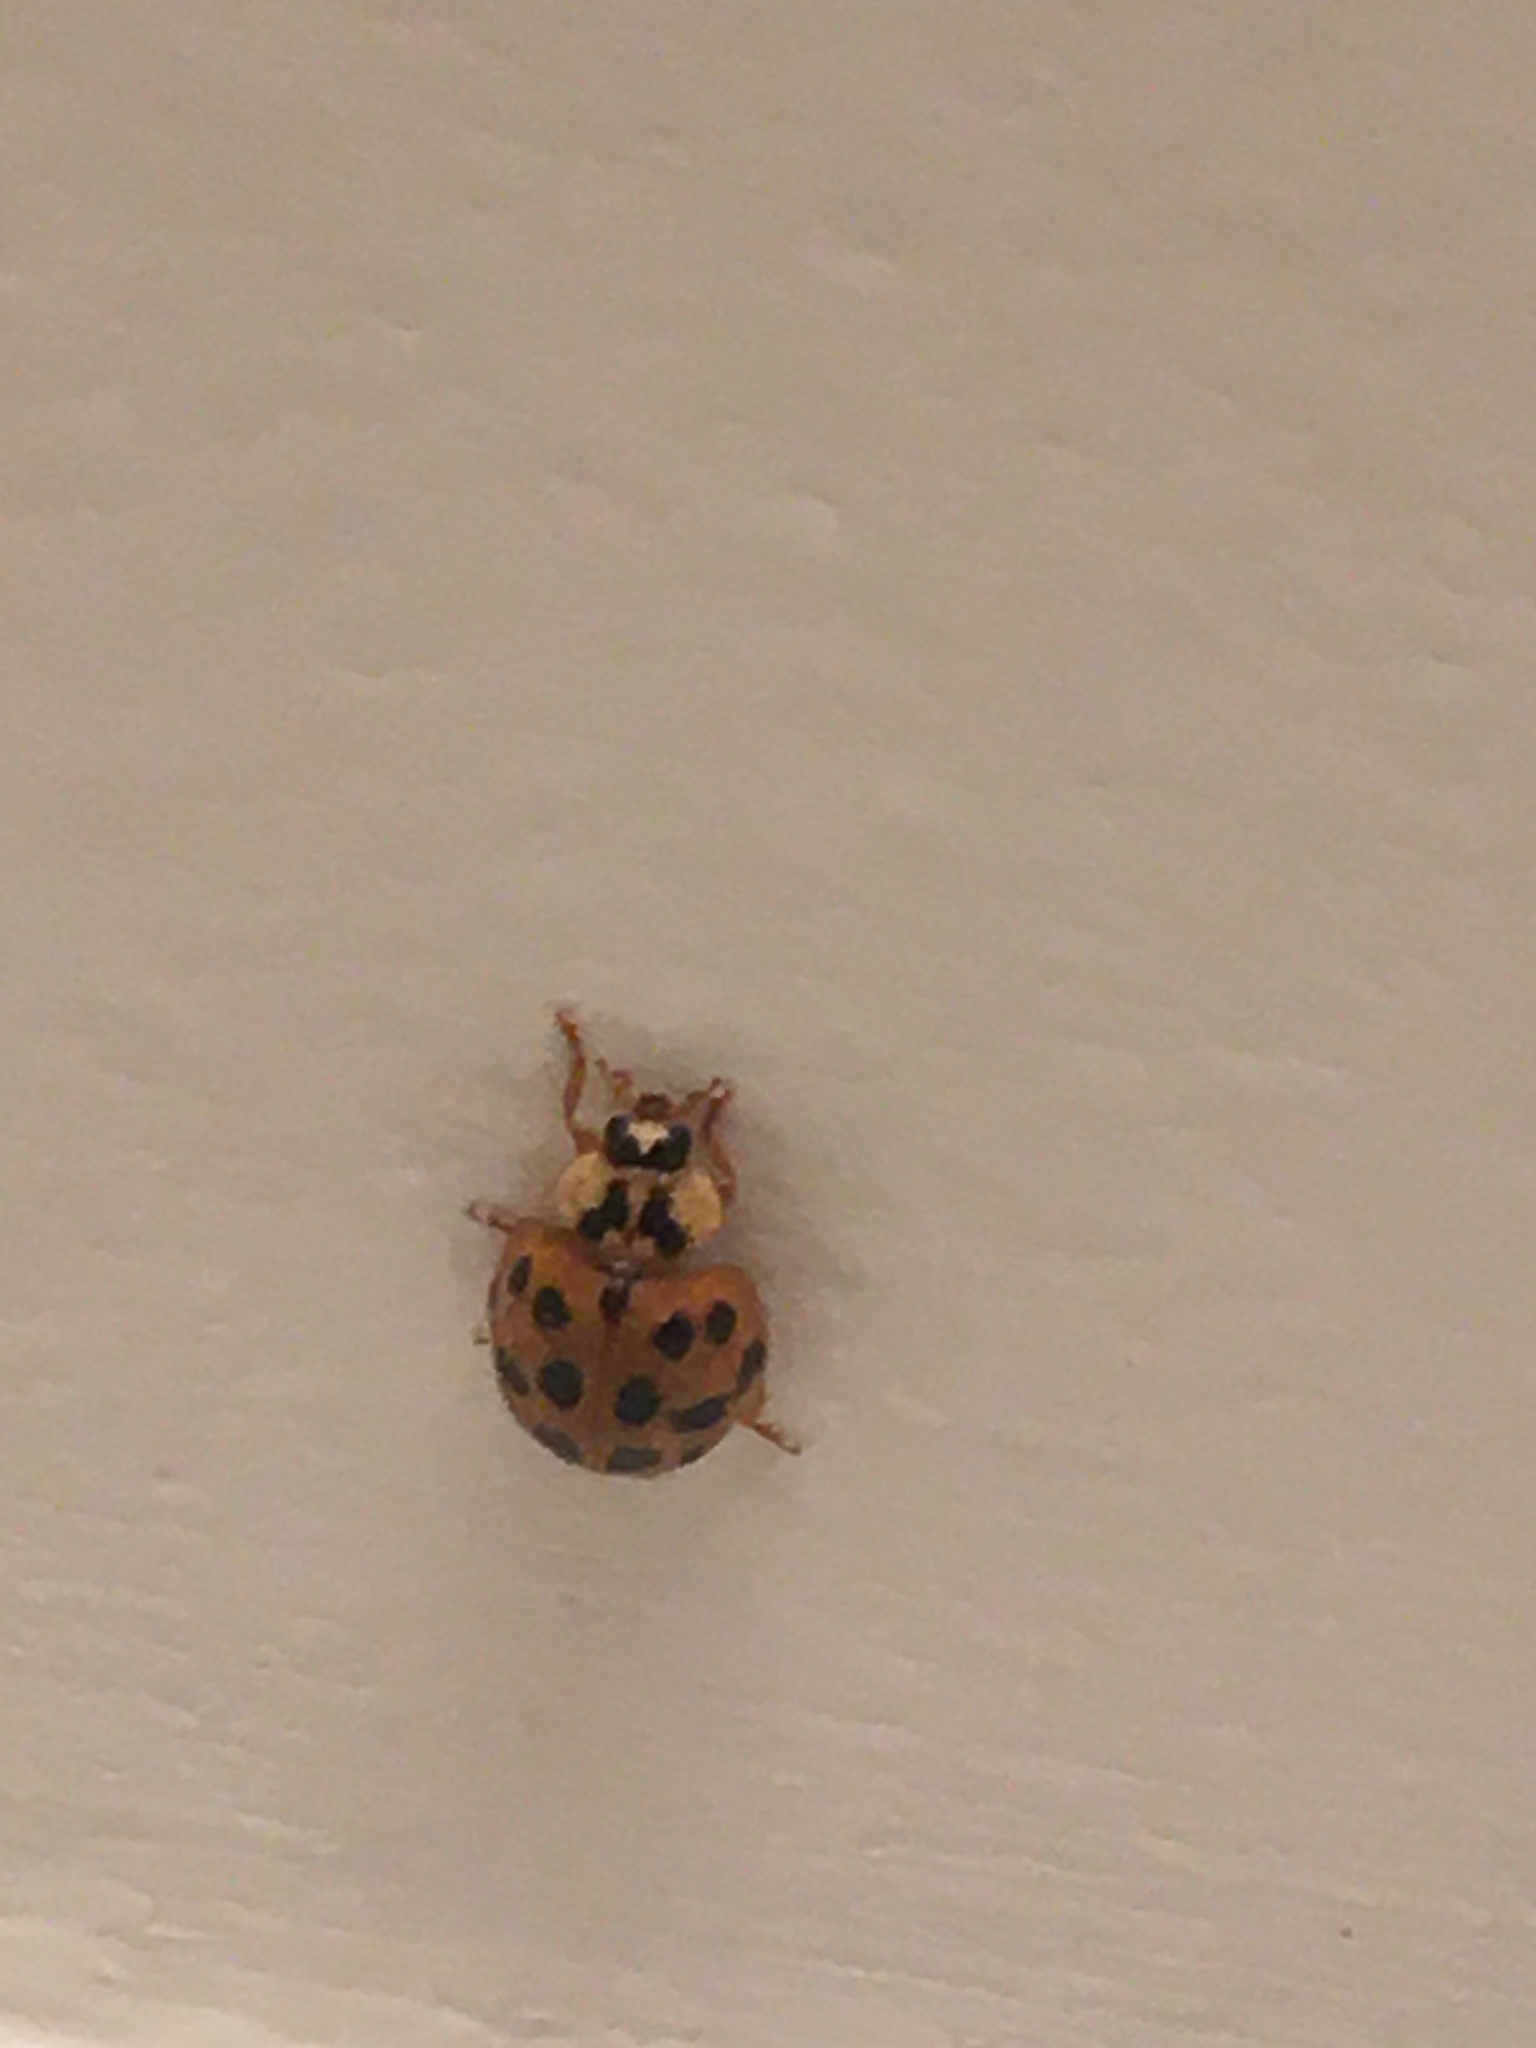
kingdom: Animalia
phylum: Arthropoda
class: Insecta
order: Coleoptera
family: Coccinellidae
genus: Harmonia
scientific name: Harmonia axyridis
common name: Harlequin ladybird
